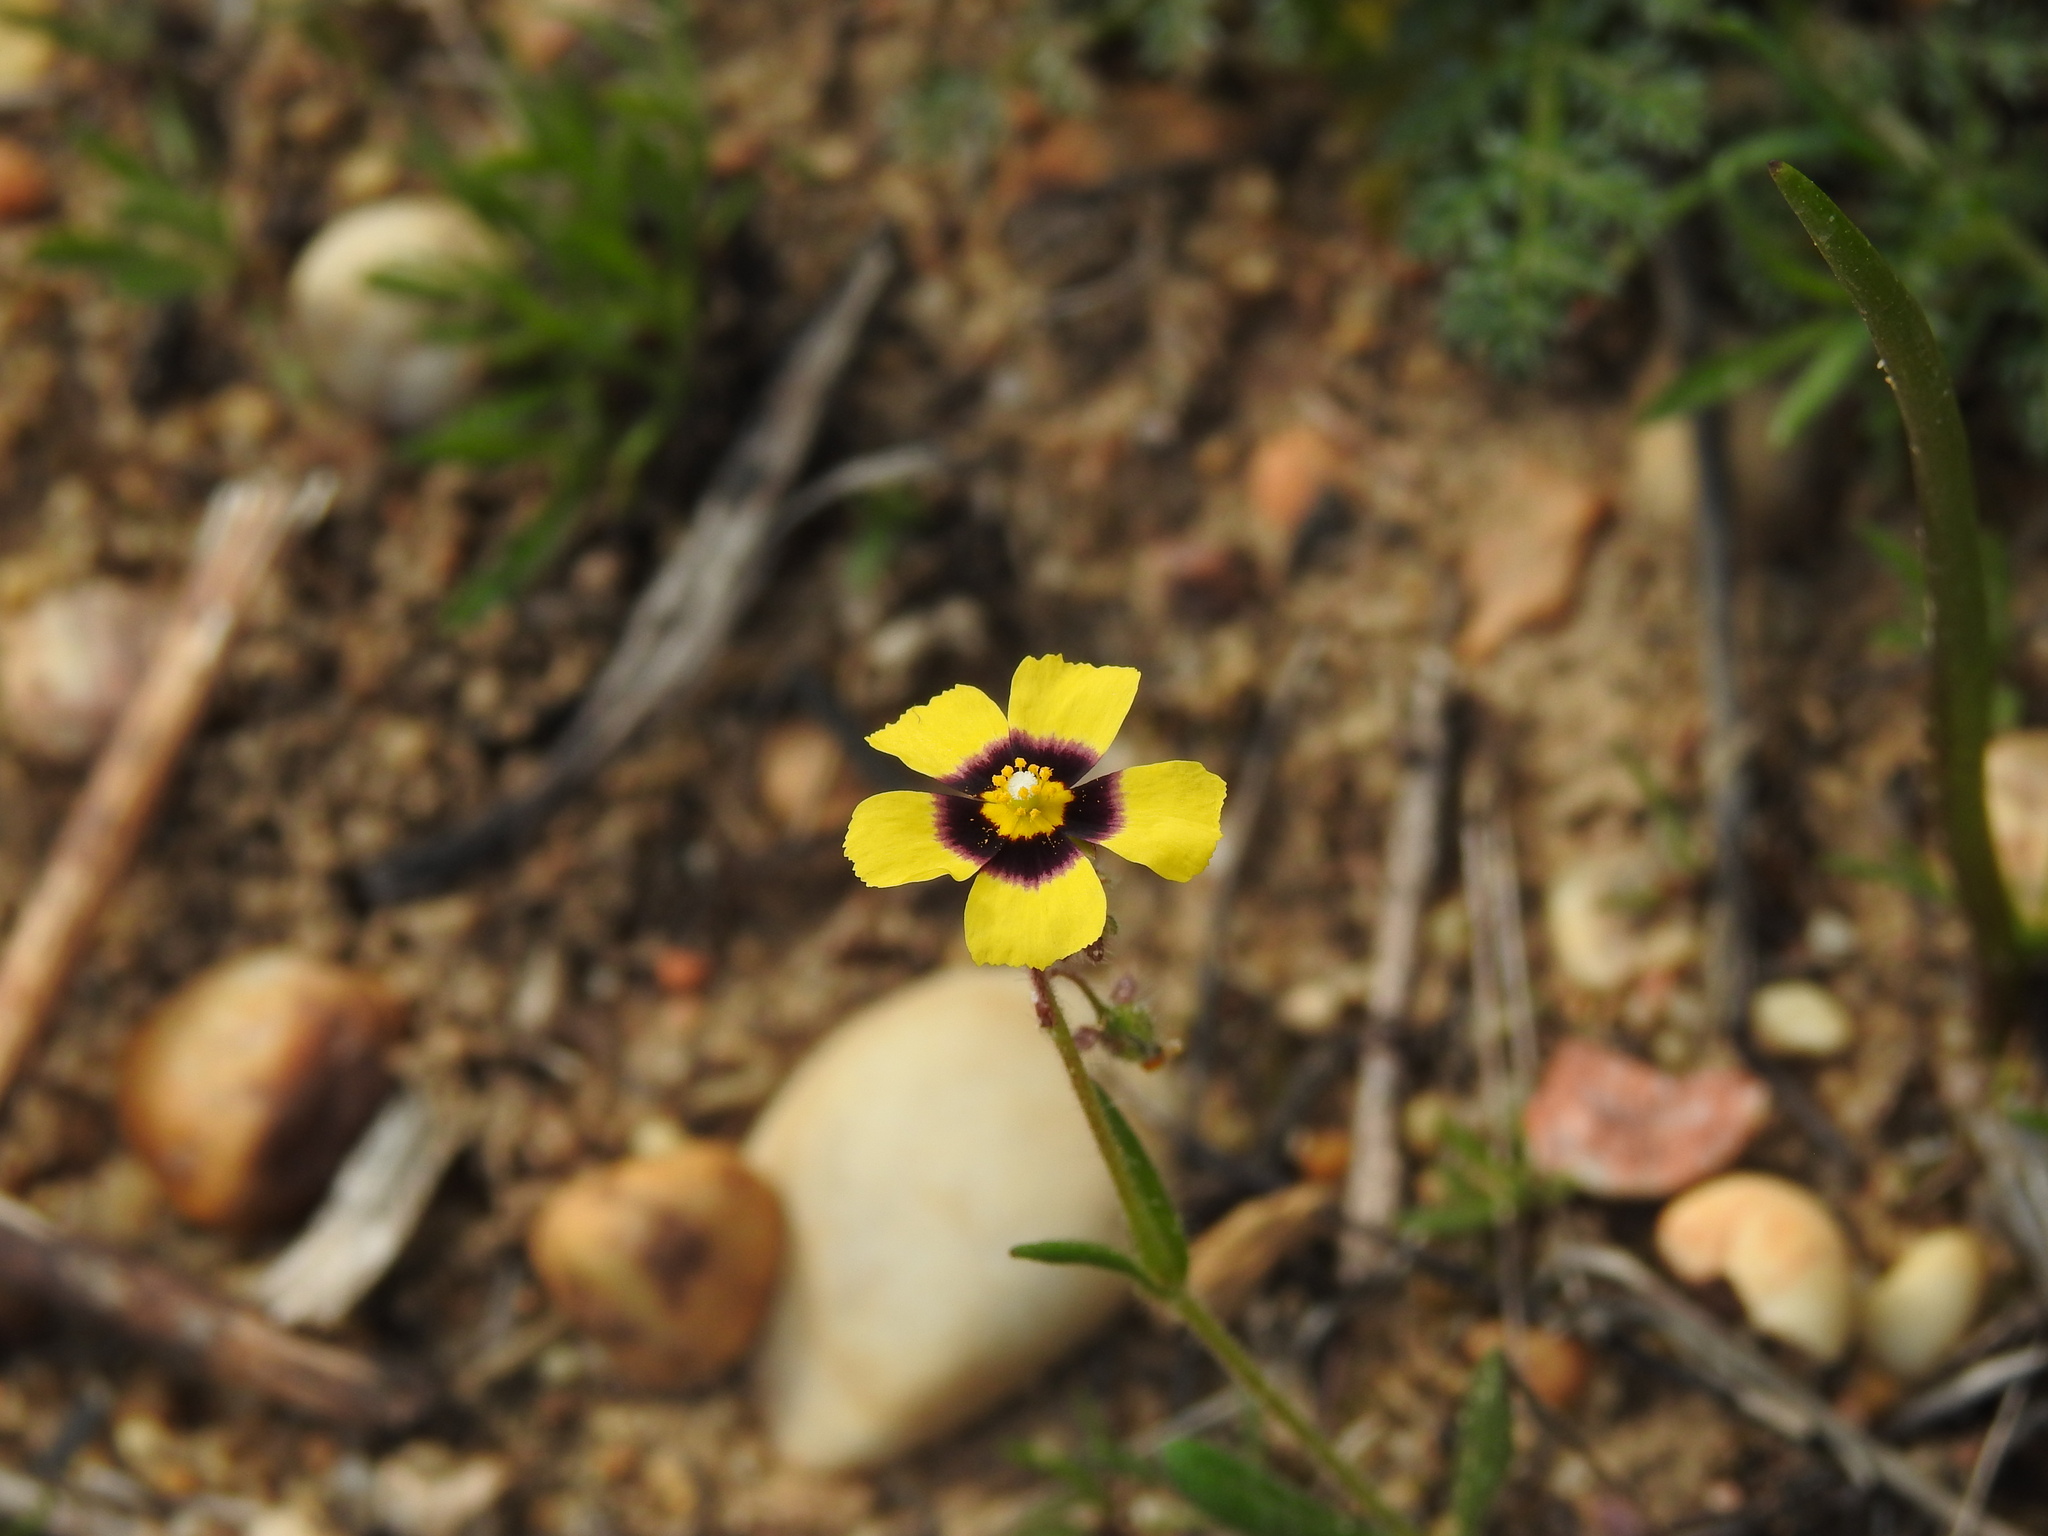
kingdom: Plantae
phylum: Tracheophyta
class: Magnoliopsida
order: Malvales
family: Cistaceae
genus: Tuberaria
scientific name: Tuberaria guttata
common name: Spotted rock-rose
